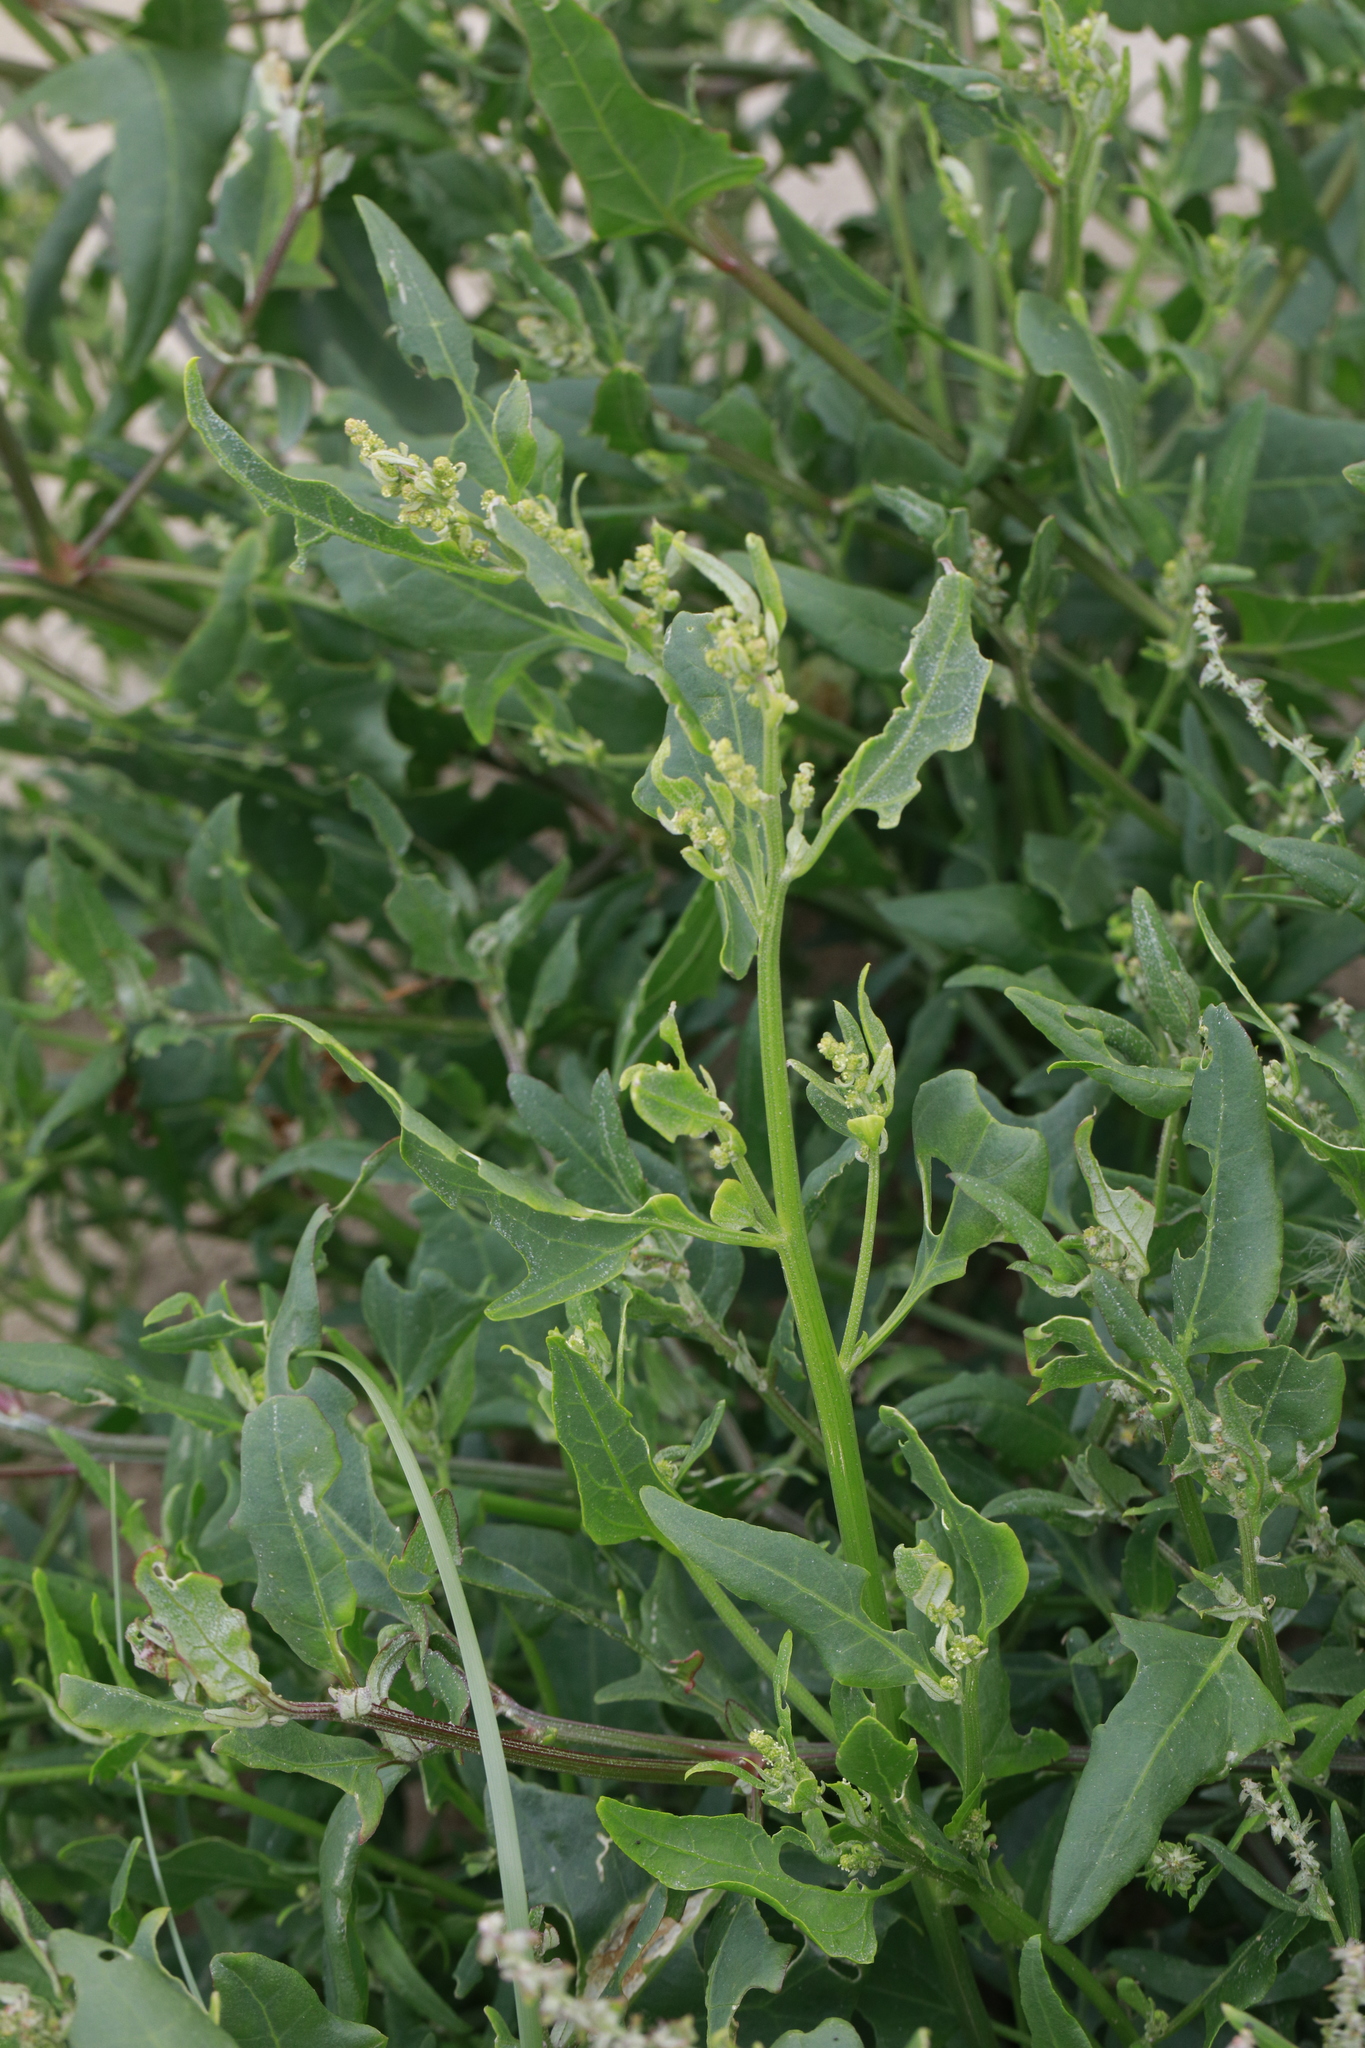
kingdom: Plantae
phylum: Tracheophyta
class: Magnoliopsida
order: Caryophyllales
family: Amaranthaceae
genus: Atriplex
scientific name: Atriplex prostrata
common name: Spear-leaved orache
